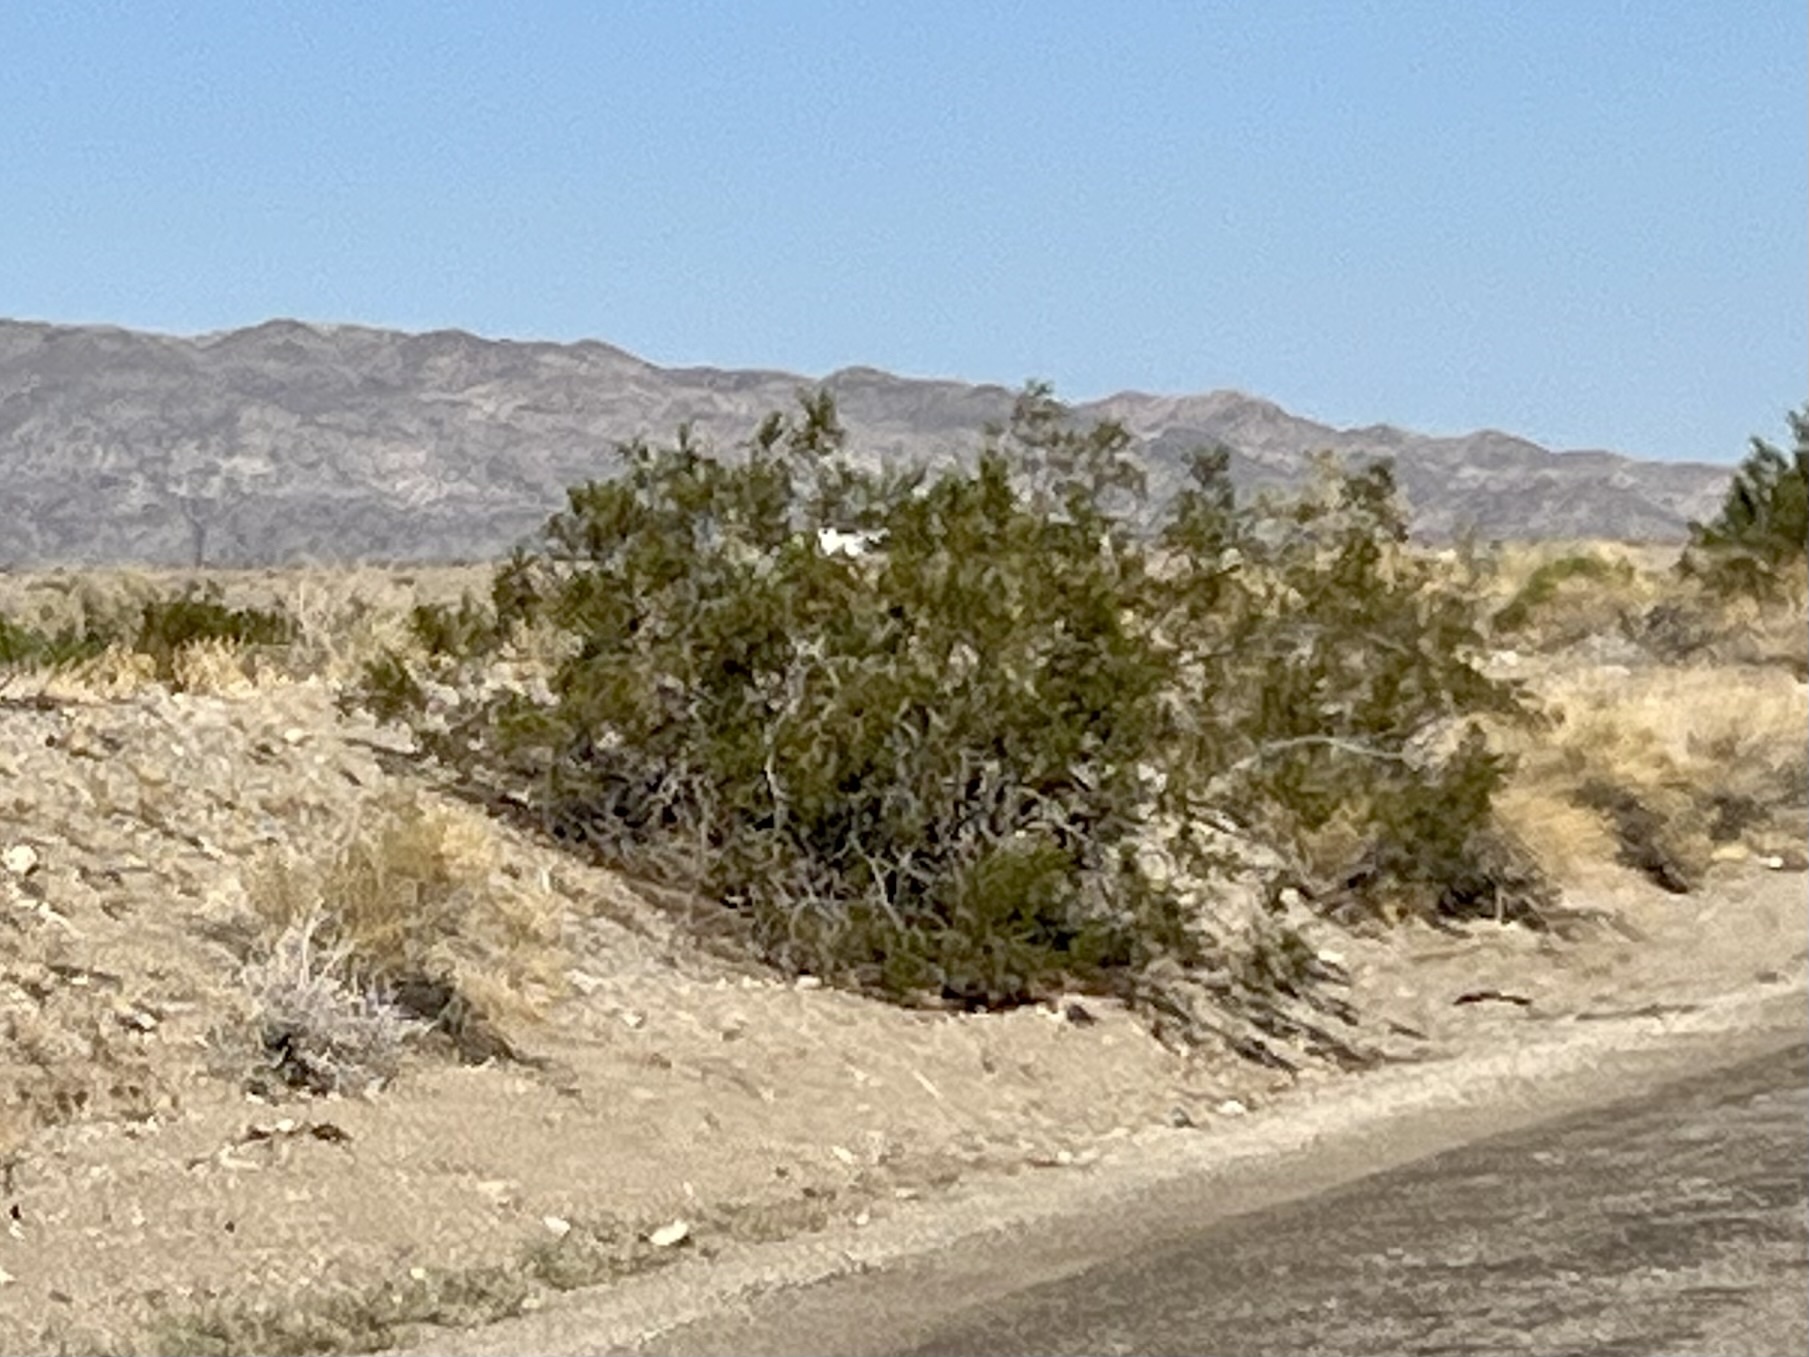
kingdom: Plantae
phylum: Tracheophyta
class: Magnoliopsida
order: Zygophyllales
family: Zygophyllaceae
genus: Larrea
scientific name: Larrea tridentata
